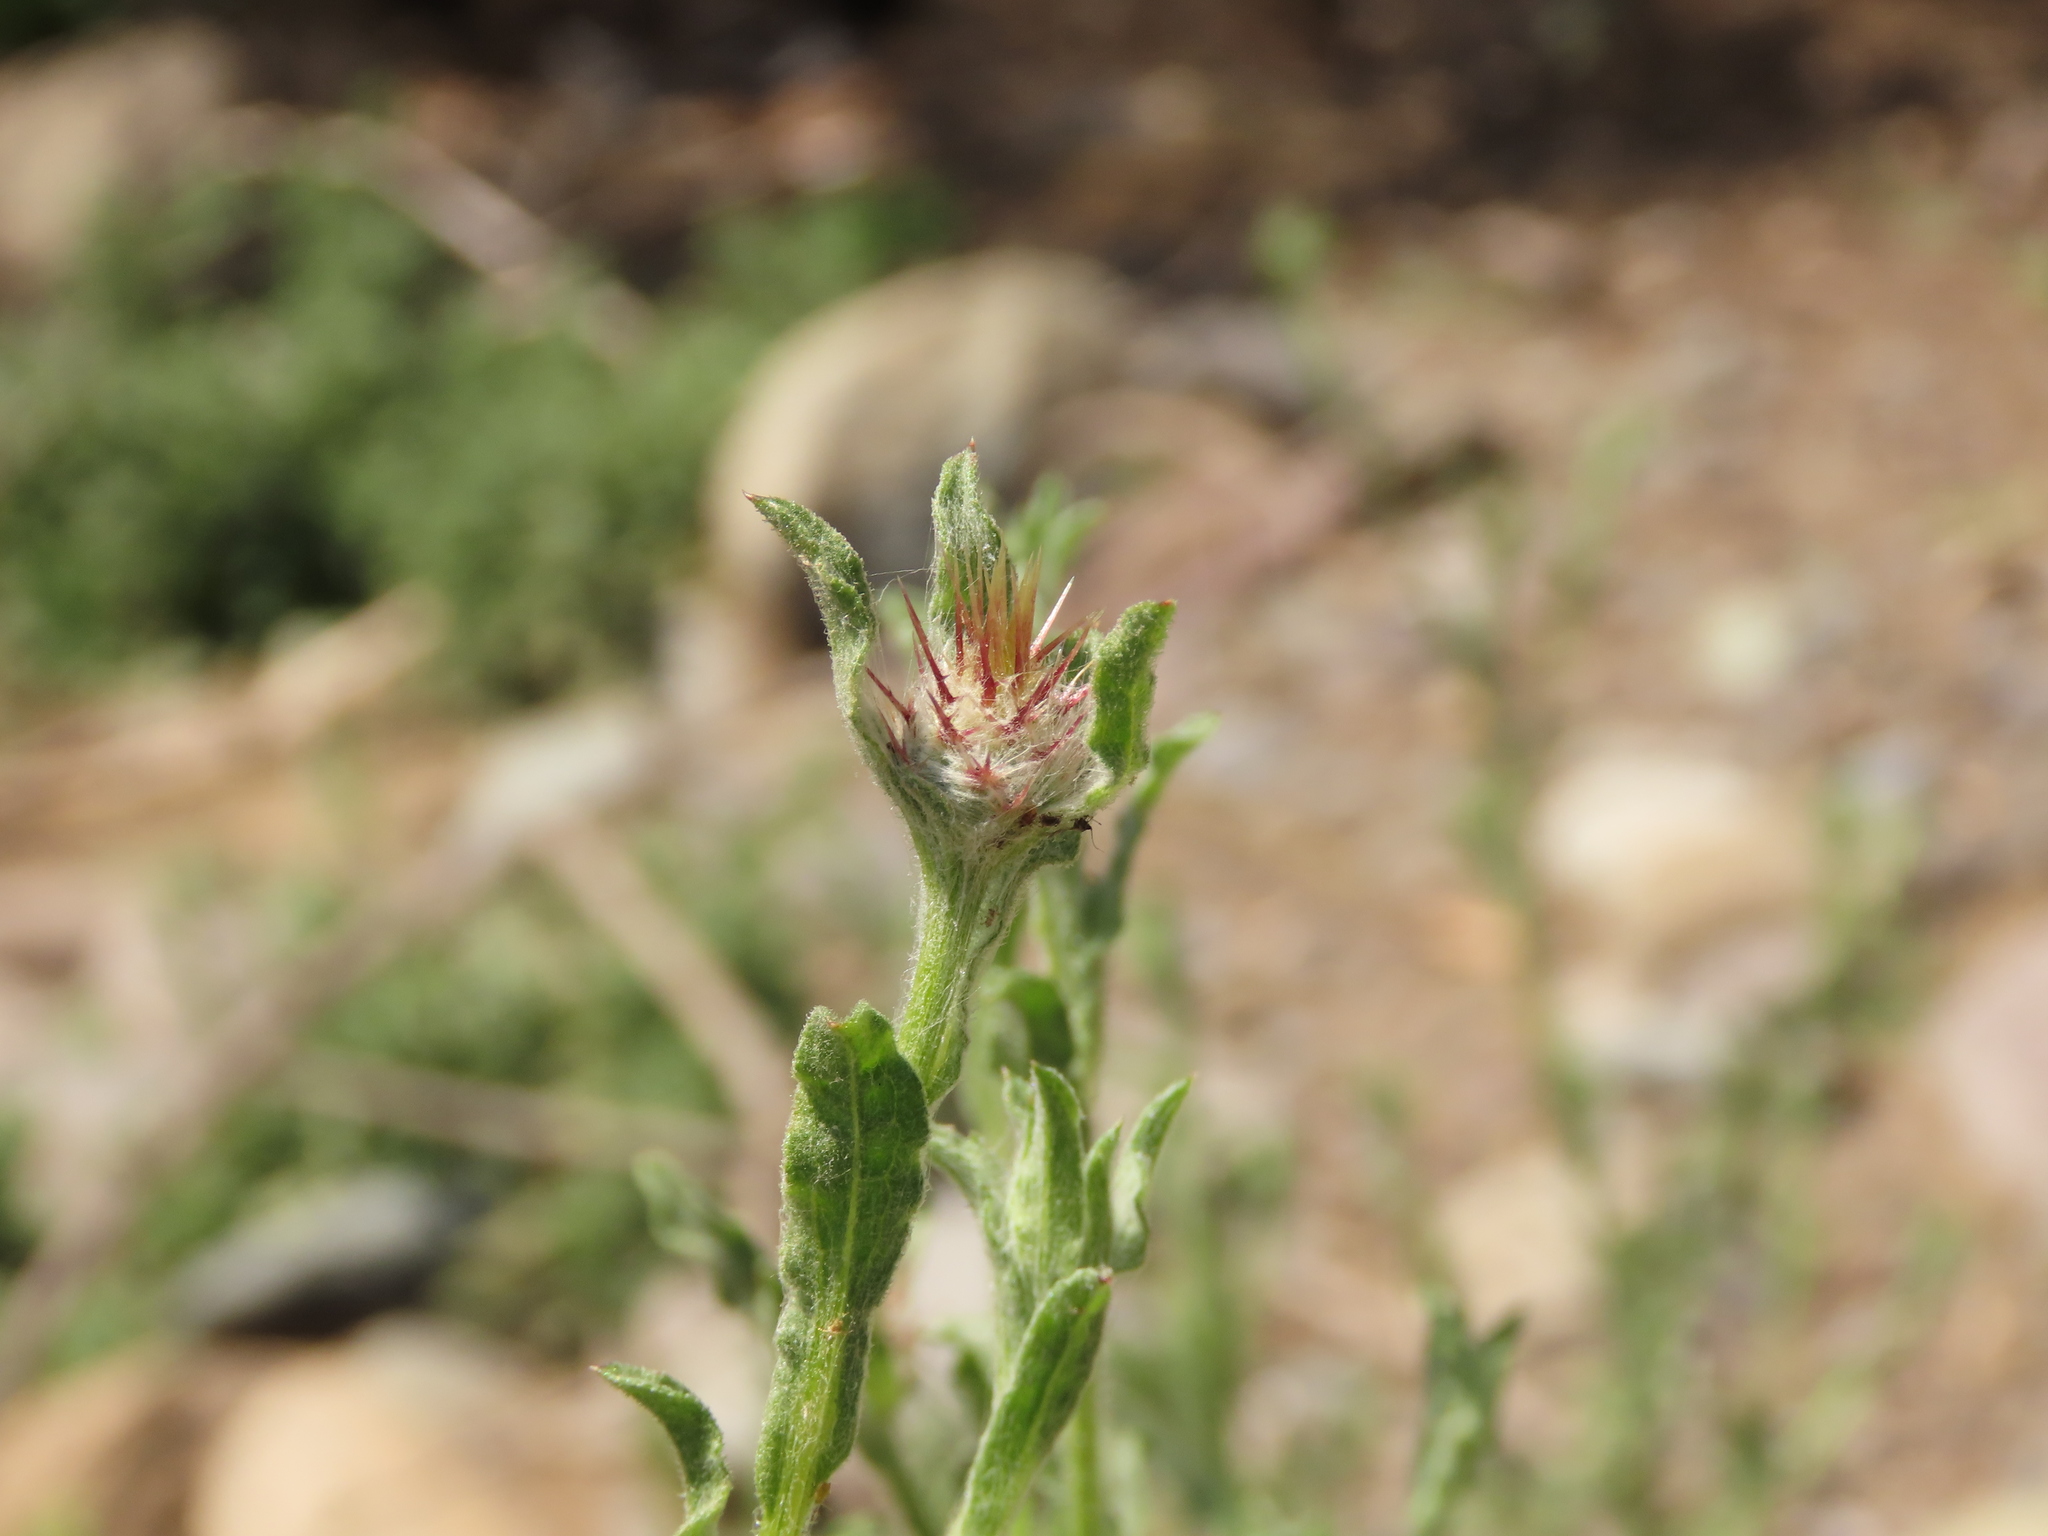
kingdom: Plantae
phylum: Tracheophyta
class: Magnoliopsida
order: Asterales
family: Asteraceae
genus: Centaurea
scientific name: Centaurea melitensis
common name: Maltese star-thistle
